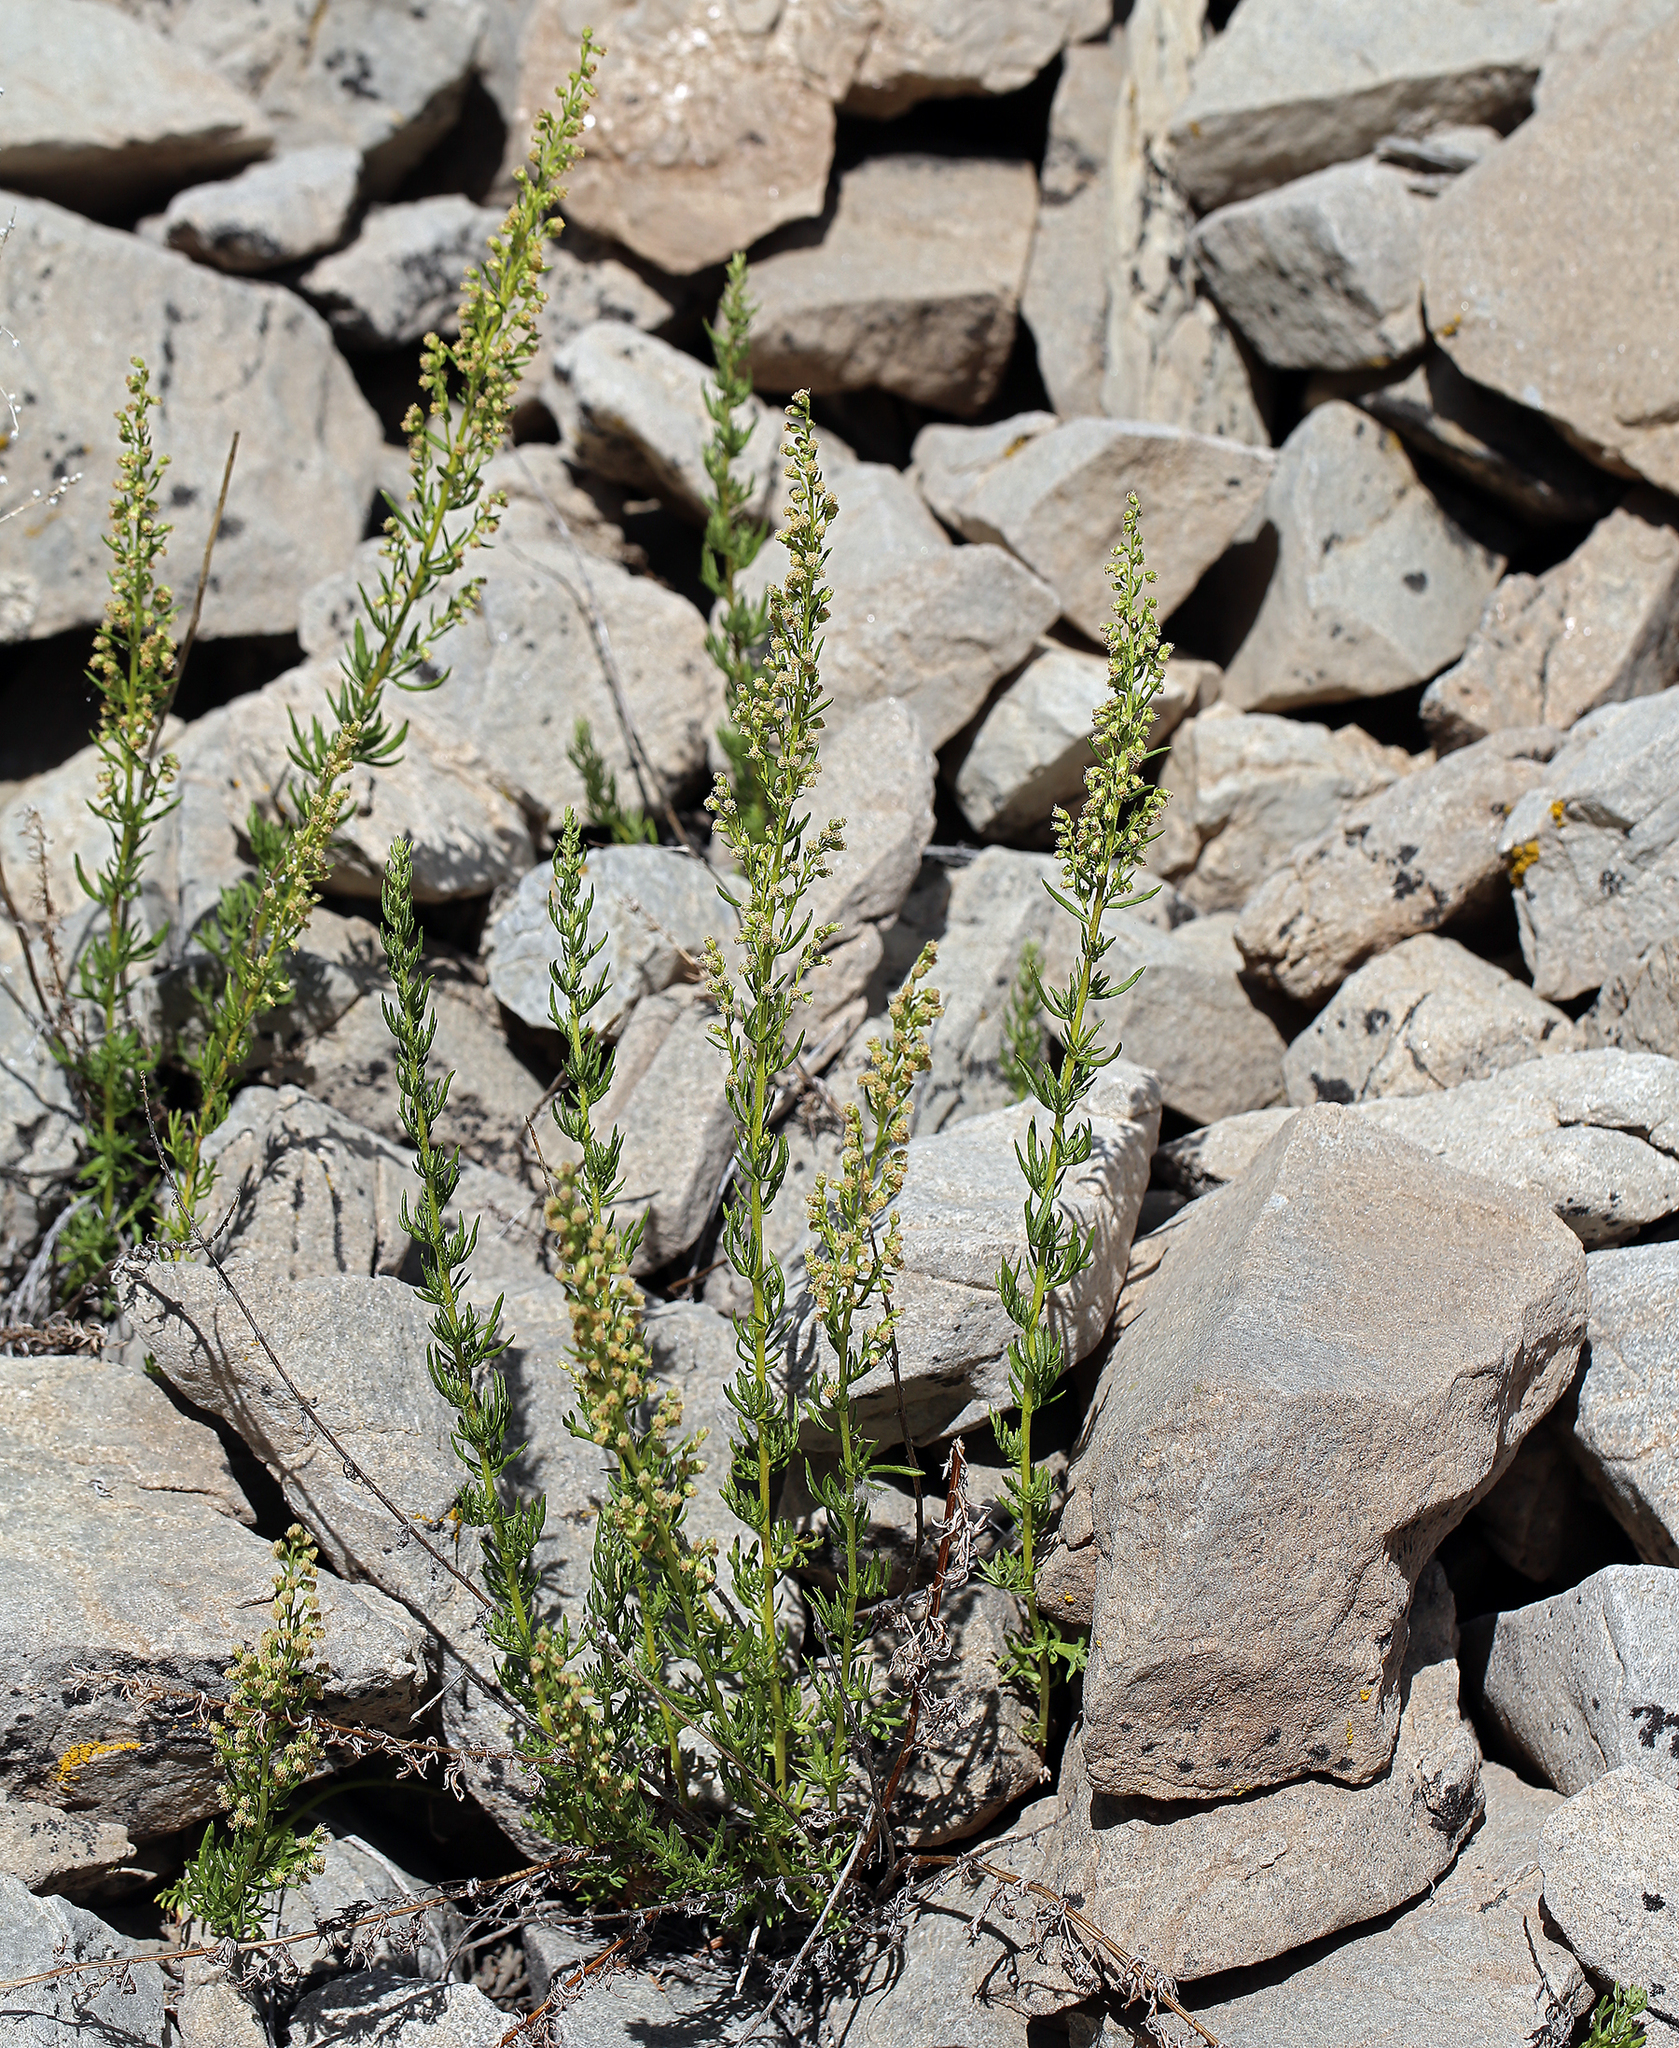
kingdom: Plantae
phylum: Tracheophyta
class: Magnoliopsida
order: Asterales
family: Asteraceae
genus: Artemisia
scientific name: Artemisia michauxiana
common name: Lemon sagewort
